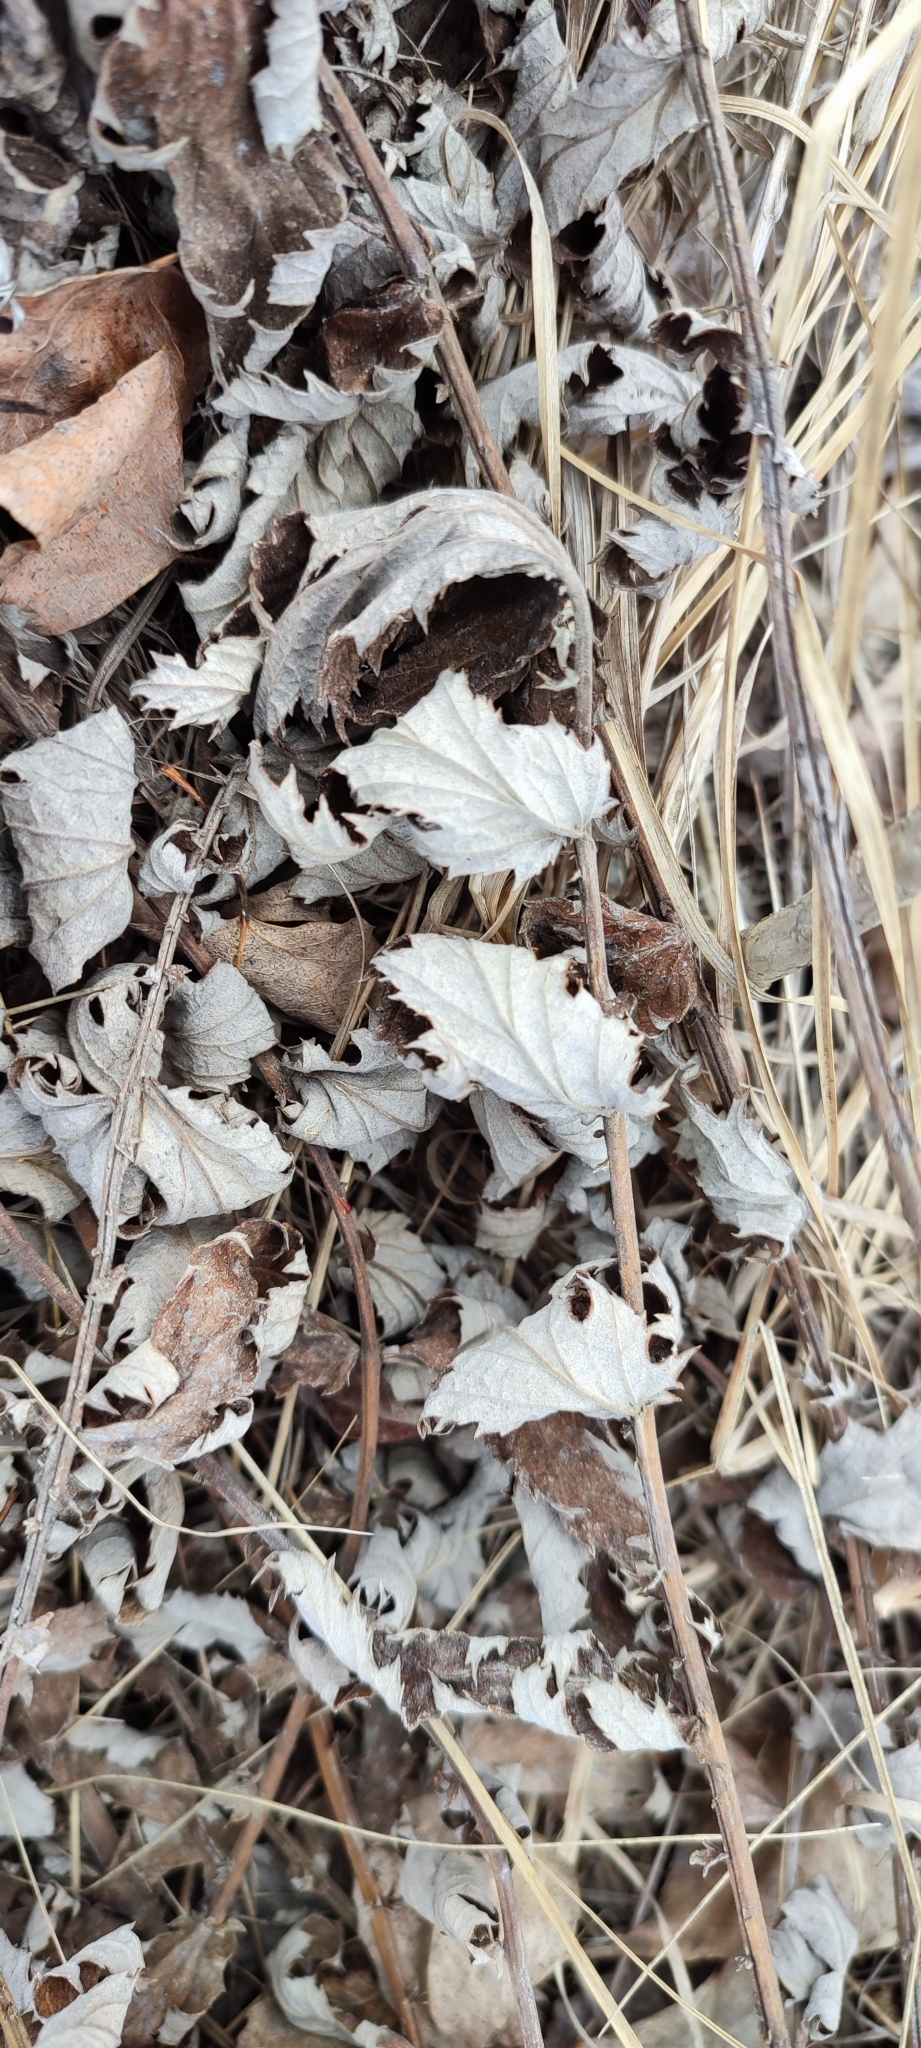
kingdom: Plantae
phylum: Tracheophyta
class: Magnoliopsida
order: Rosales
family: Rosaceae
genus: Filipendula
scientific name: Filipendula ulmaria
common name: Meadowsweet
